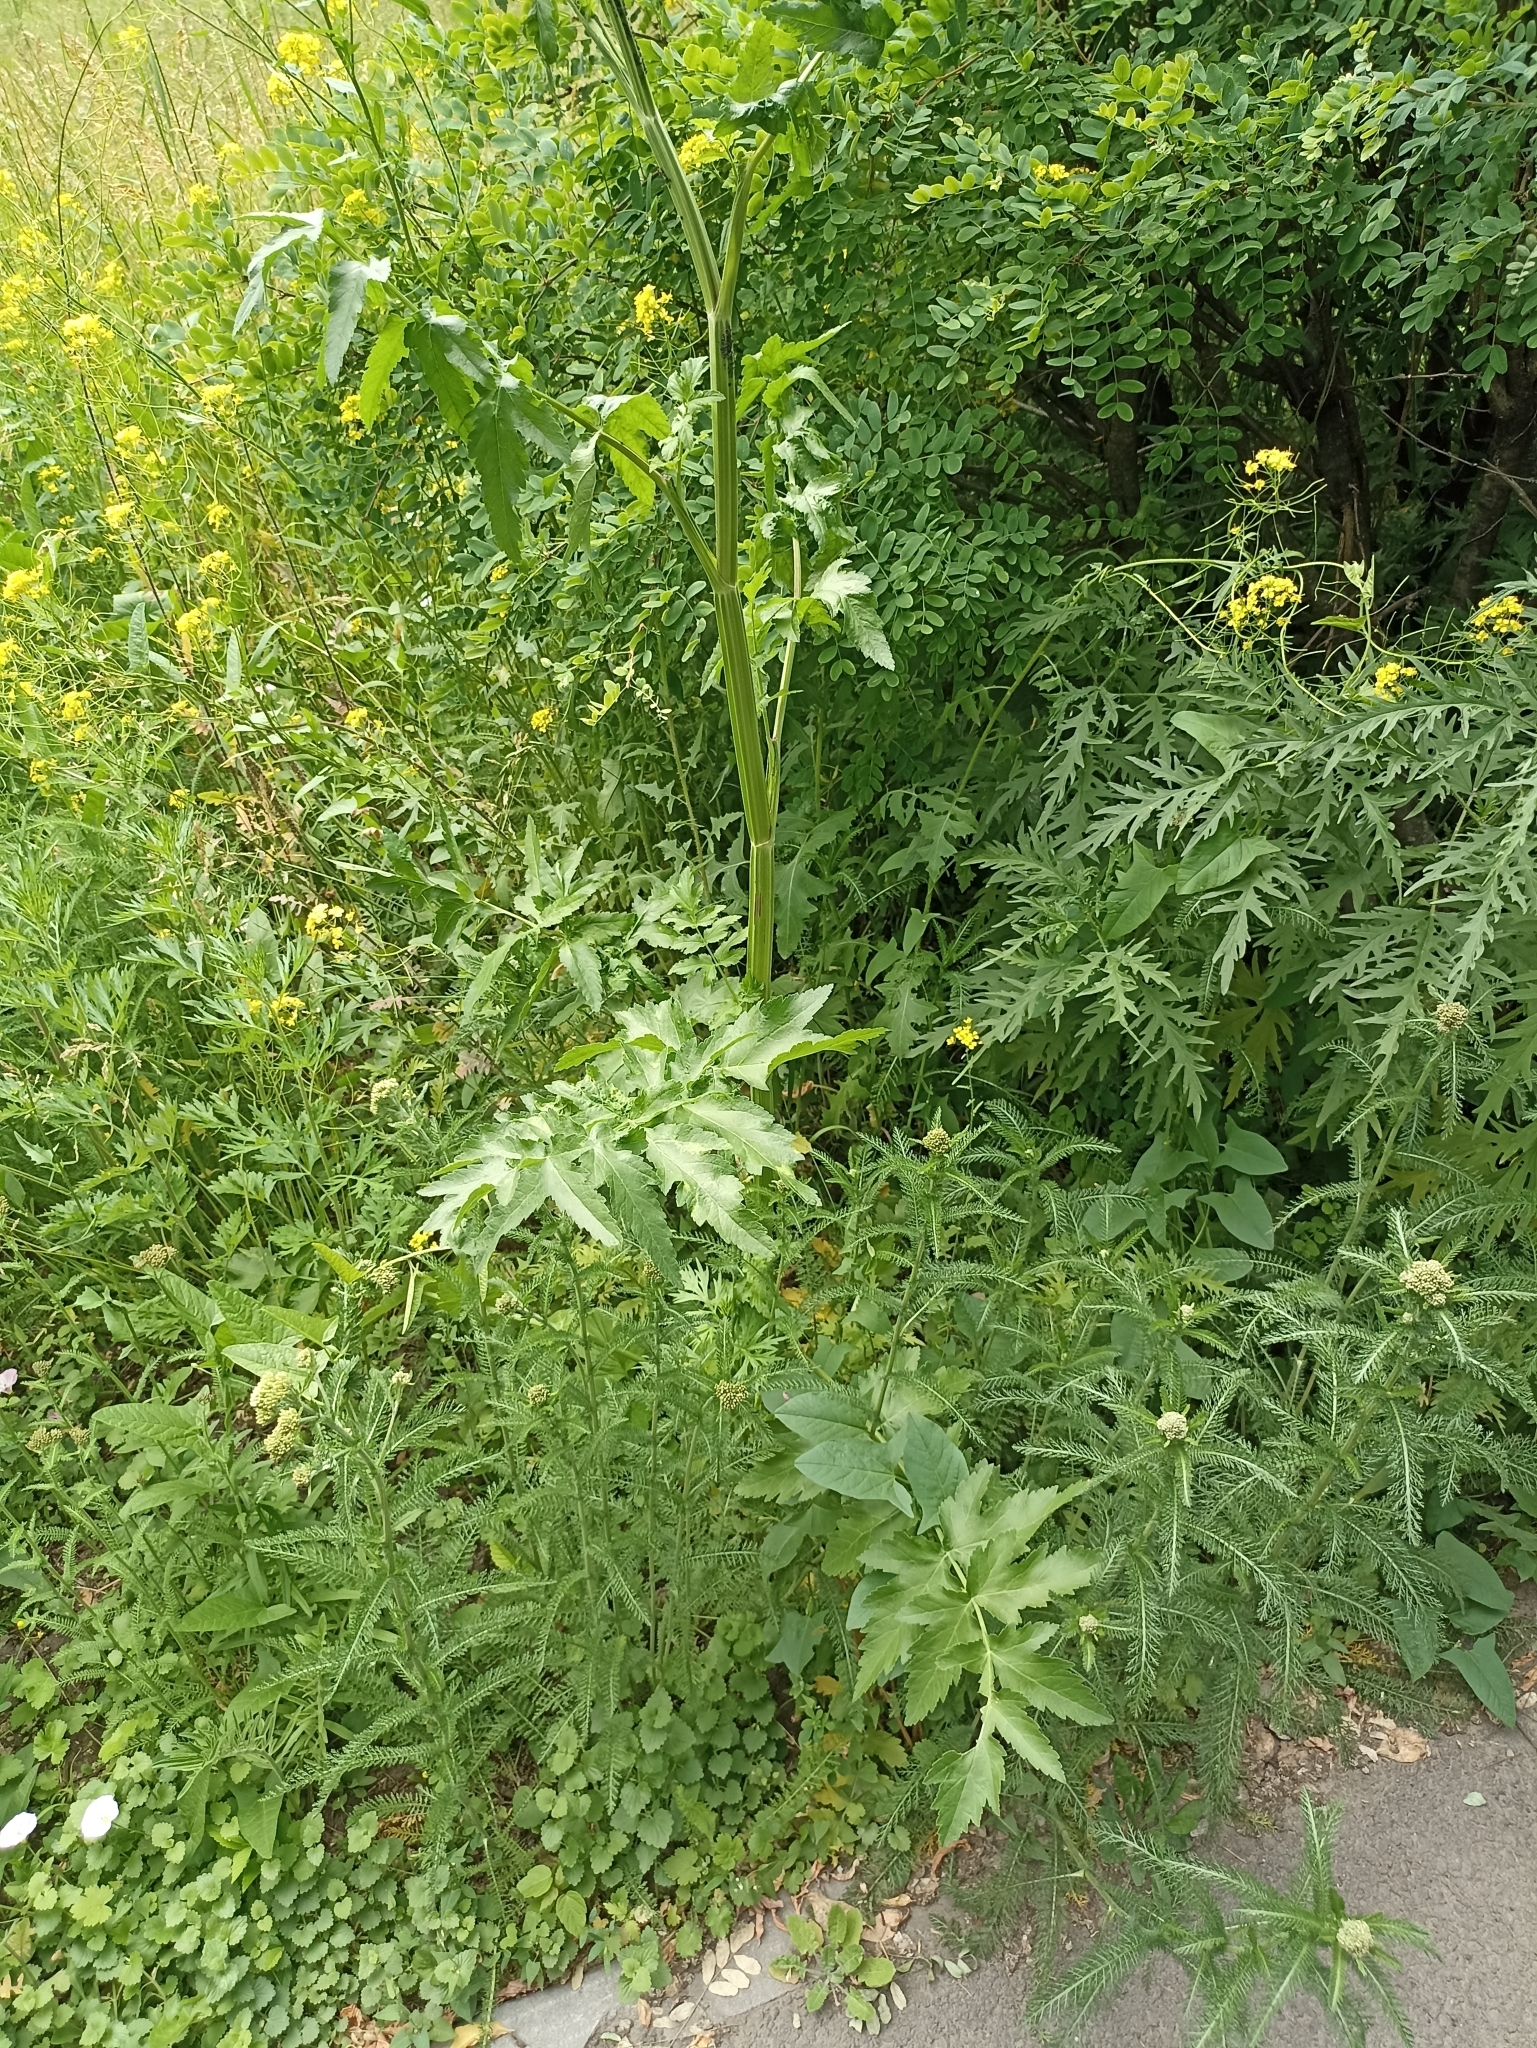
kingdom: Plantae
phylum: Tracheophyta
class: Magnoliopsida
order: Apiales
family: Apiaceae
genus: Pastinaca
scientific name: Pastinaca sativa
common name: Wild parsnip
